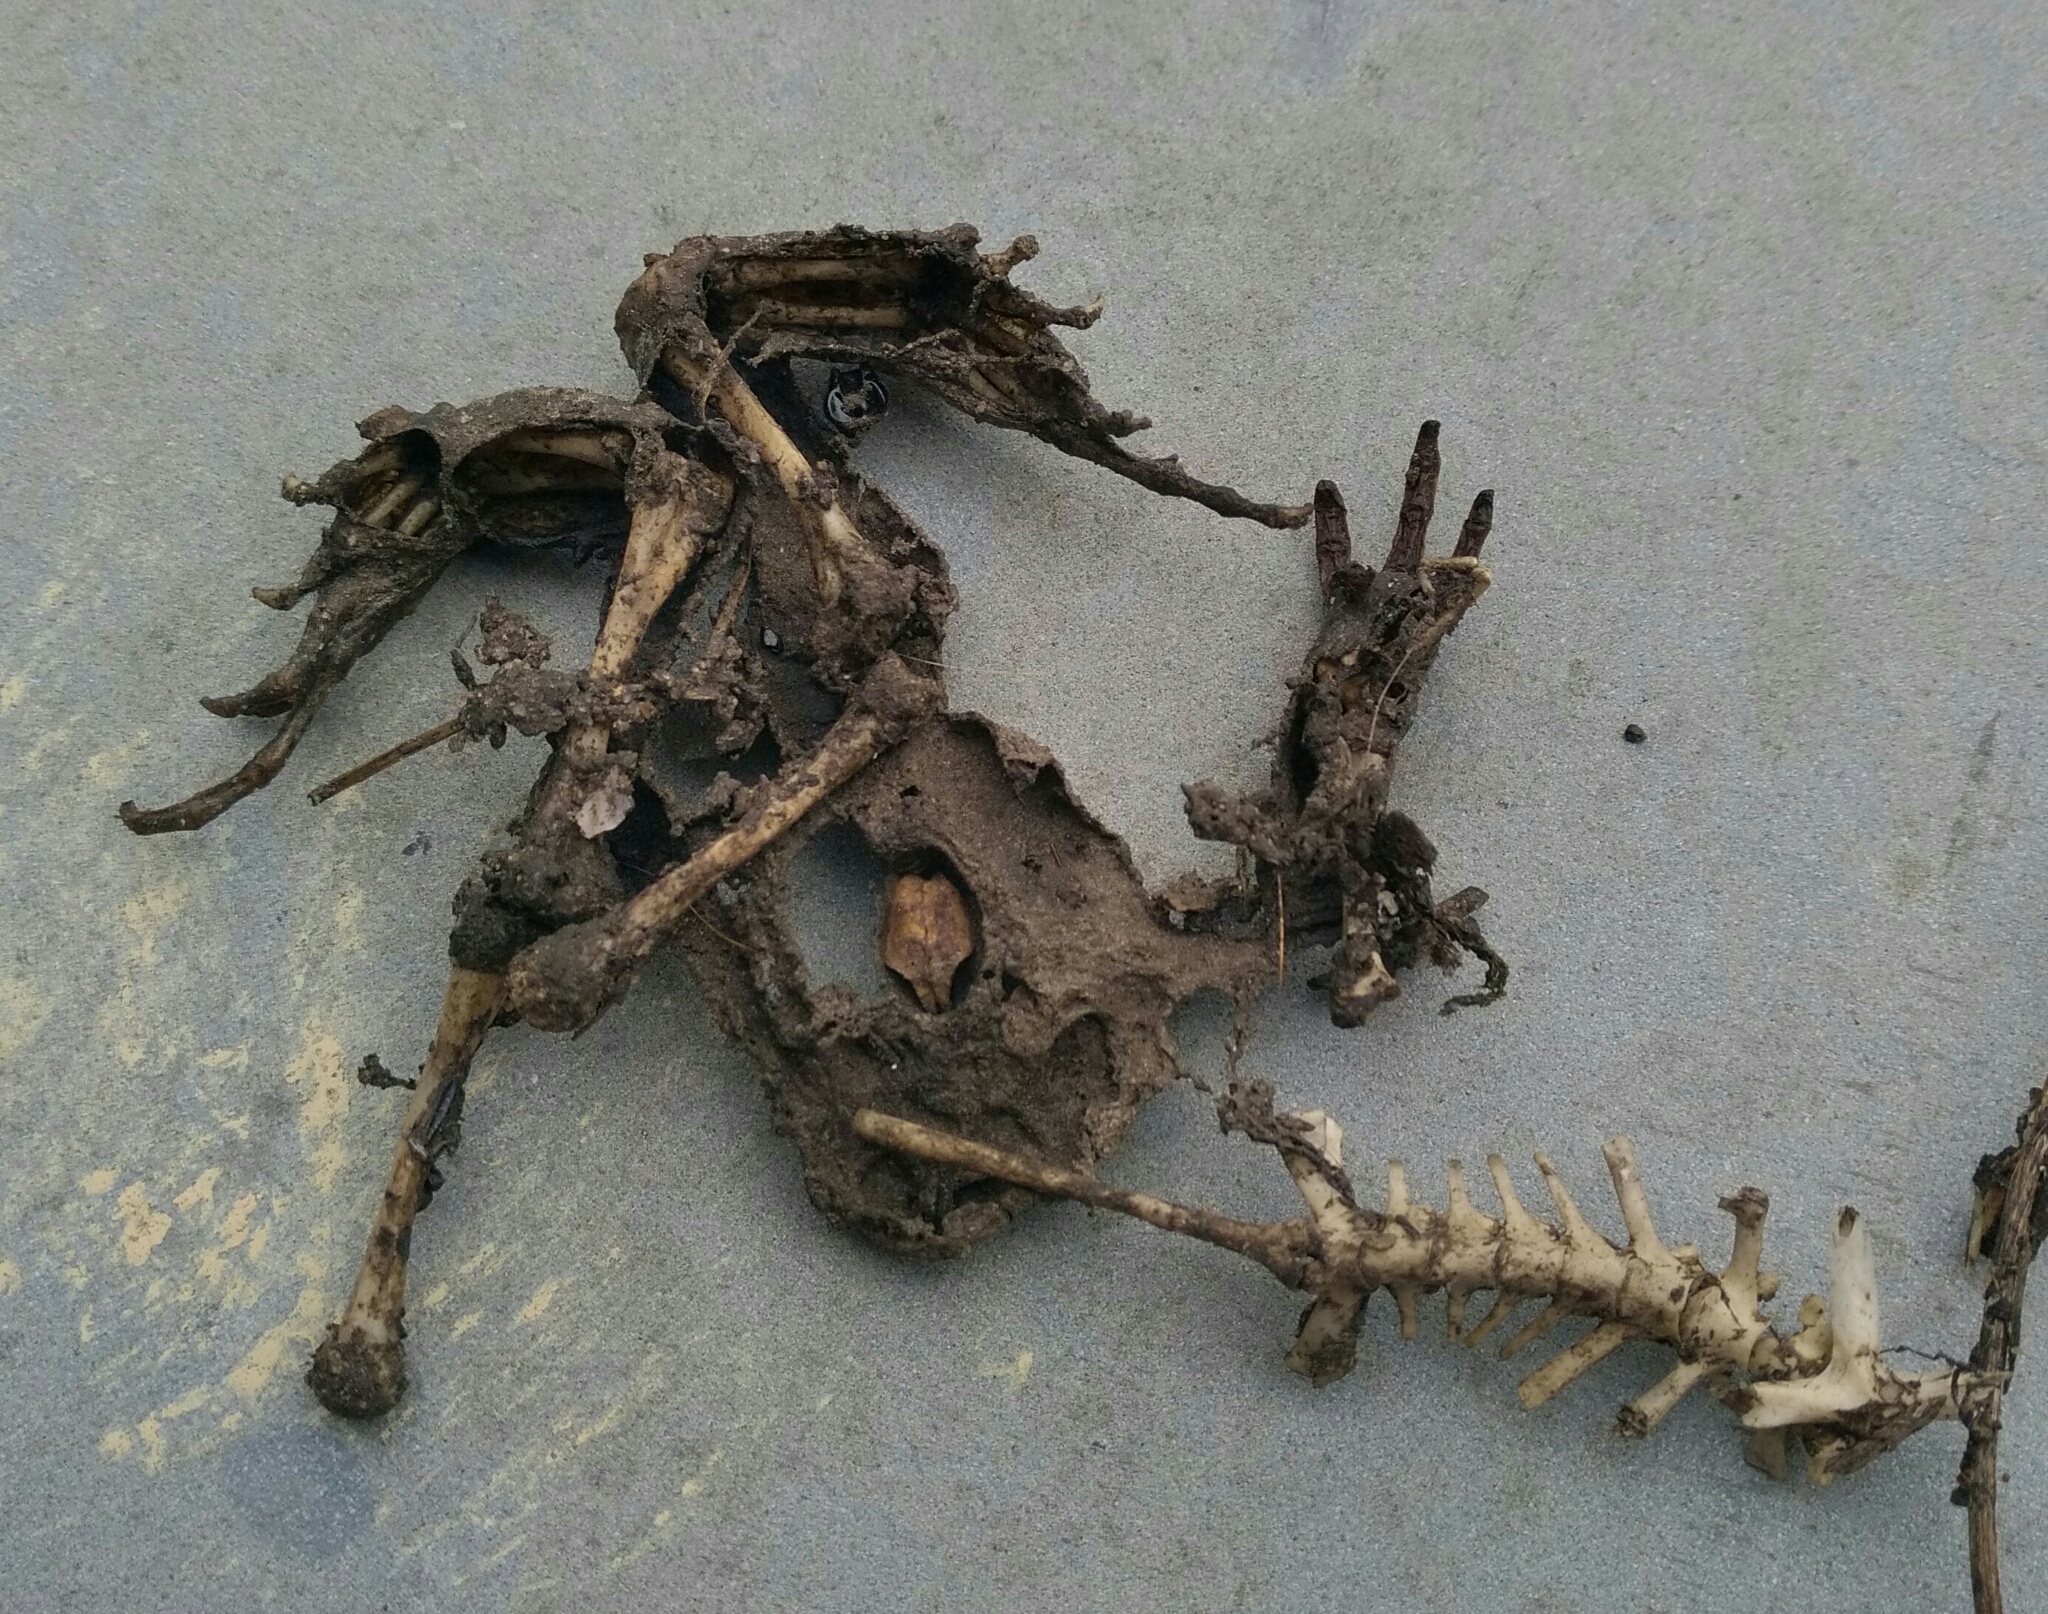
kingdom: Animalia
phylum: Chordata
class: Amphibia
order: Anura
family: Bufonidae
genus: Bufo
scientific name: Bufo spinosus
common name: Western common toad
